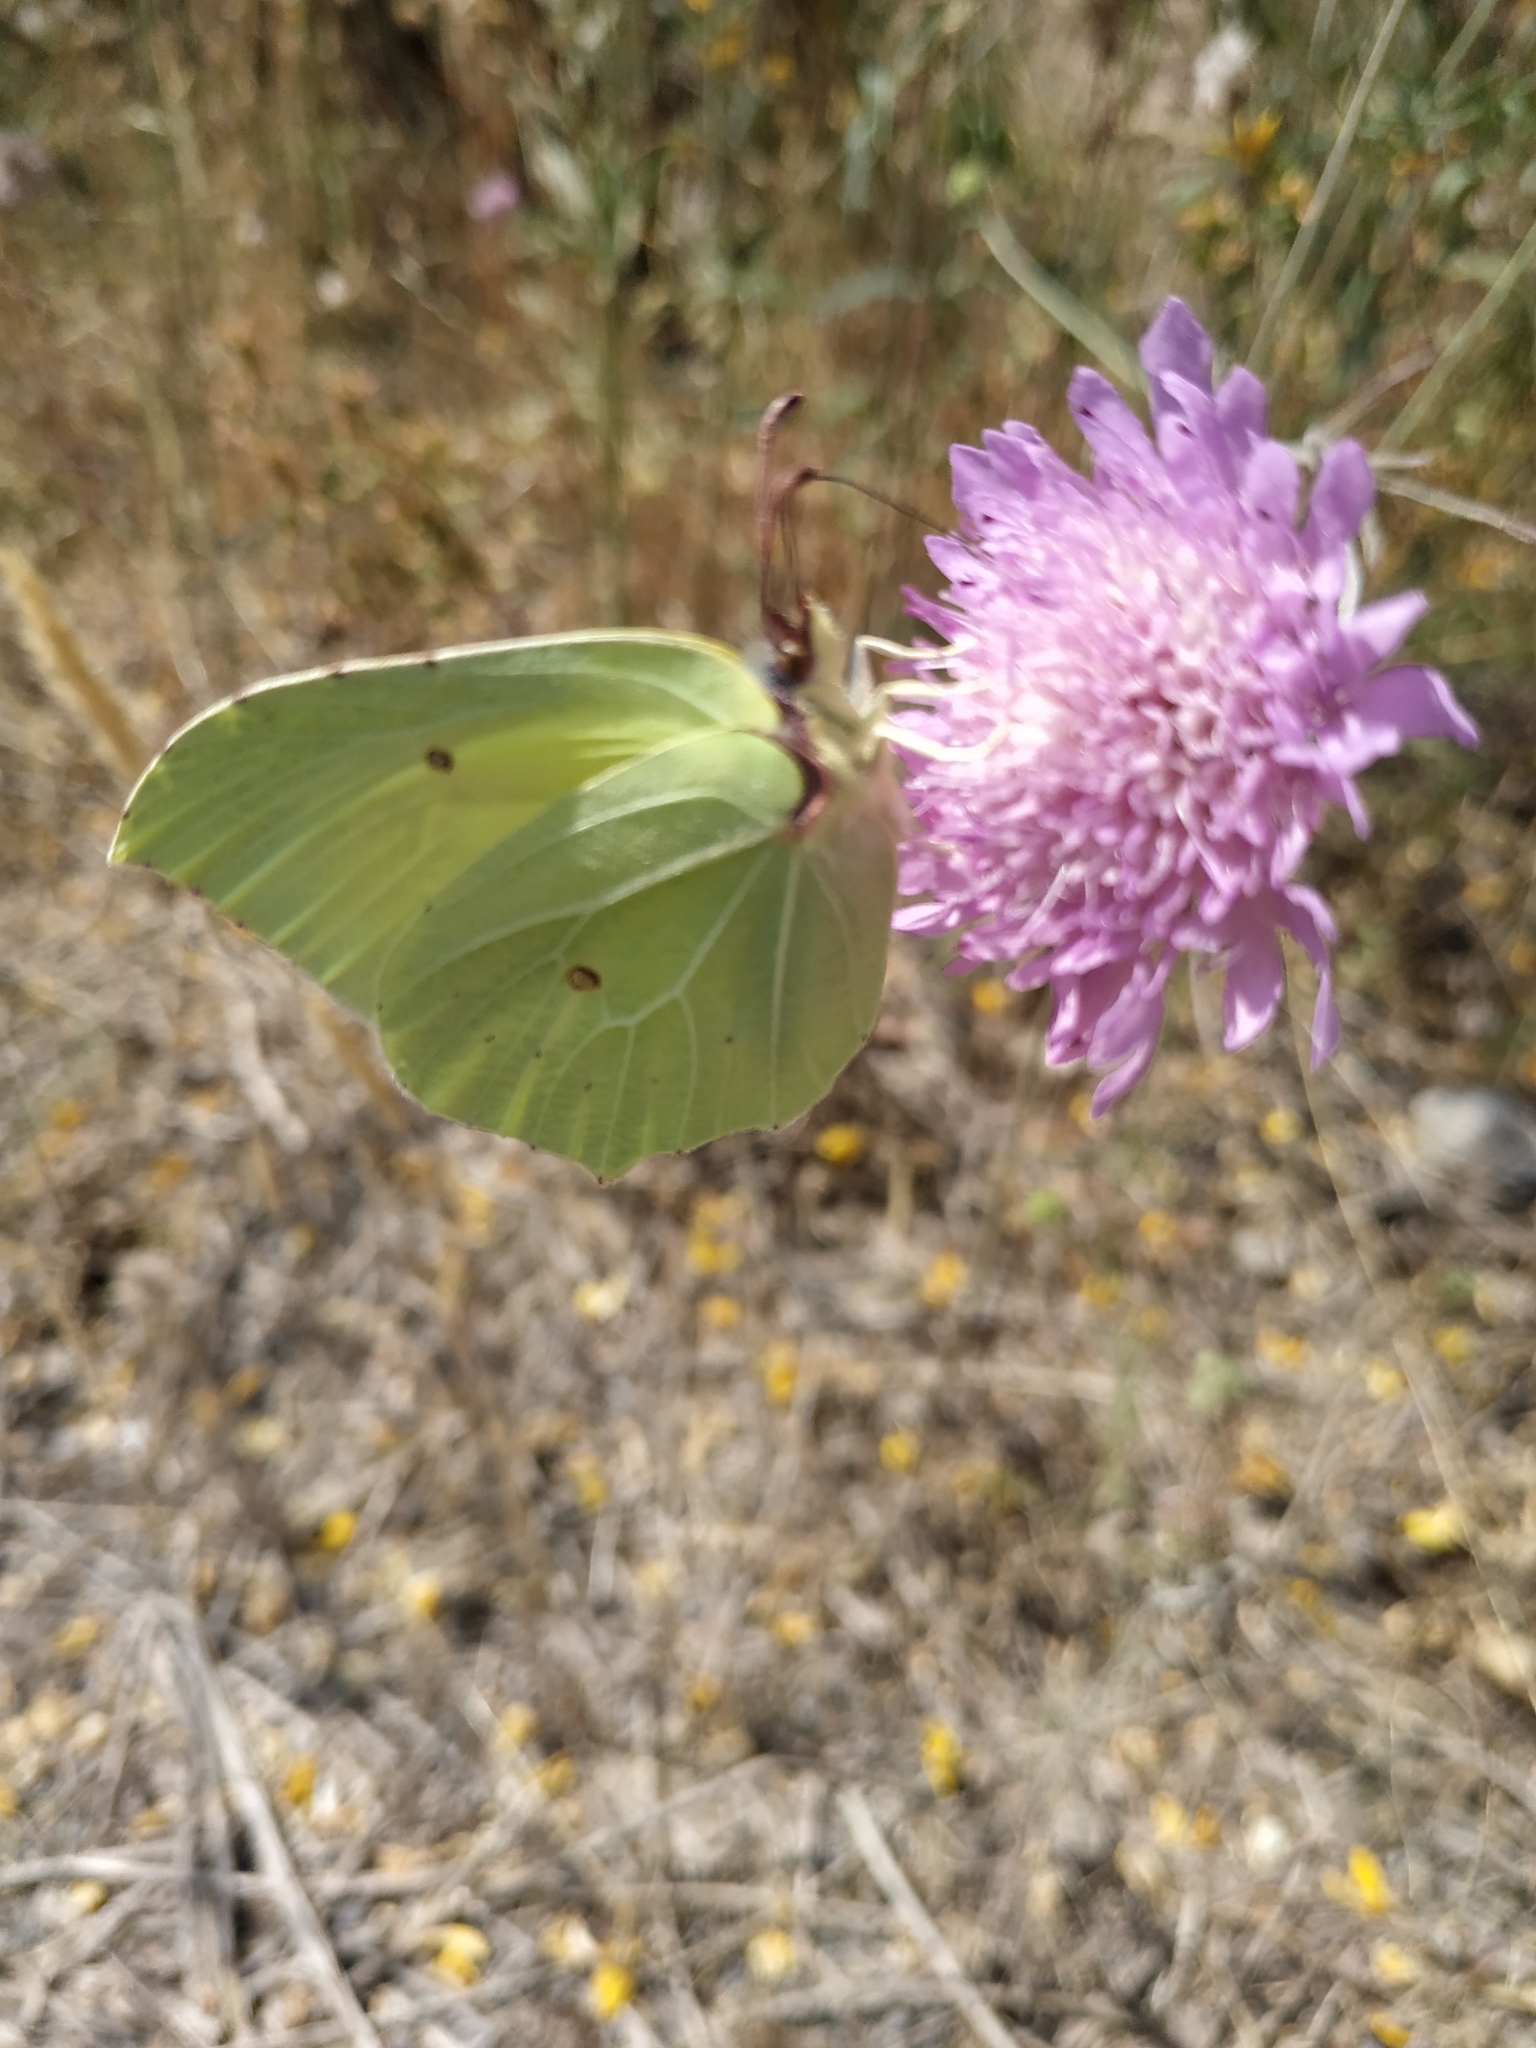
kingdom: Animalia
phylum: Arthropoda
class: Insecta
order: Lepidoptera
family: Pieridae
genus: Gonepteryx
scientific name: Gonepteryx rhamni
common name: Brimstone
